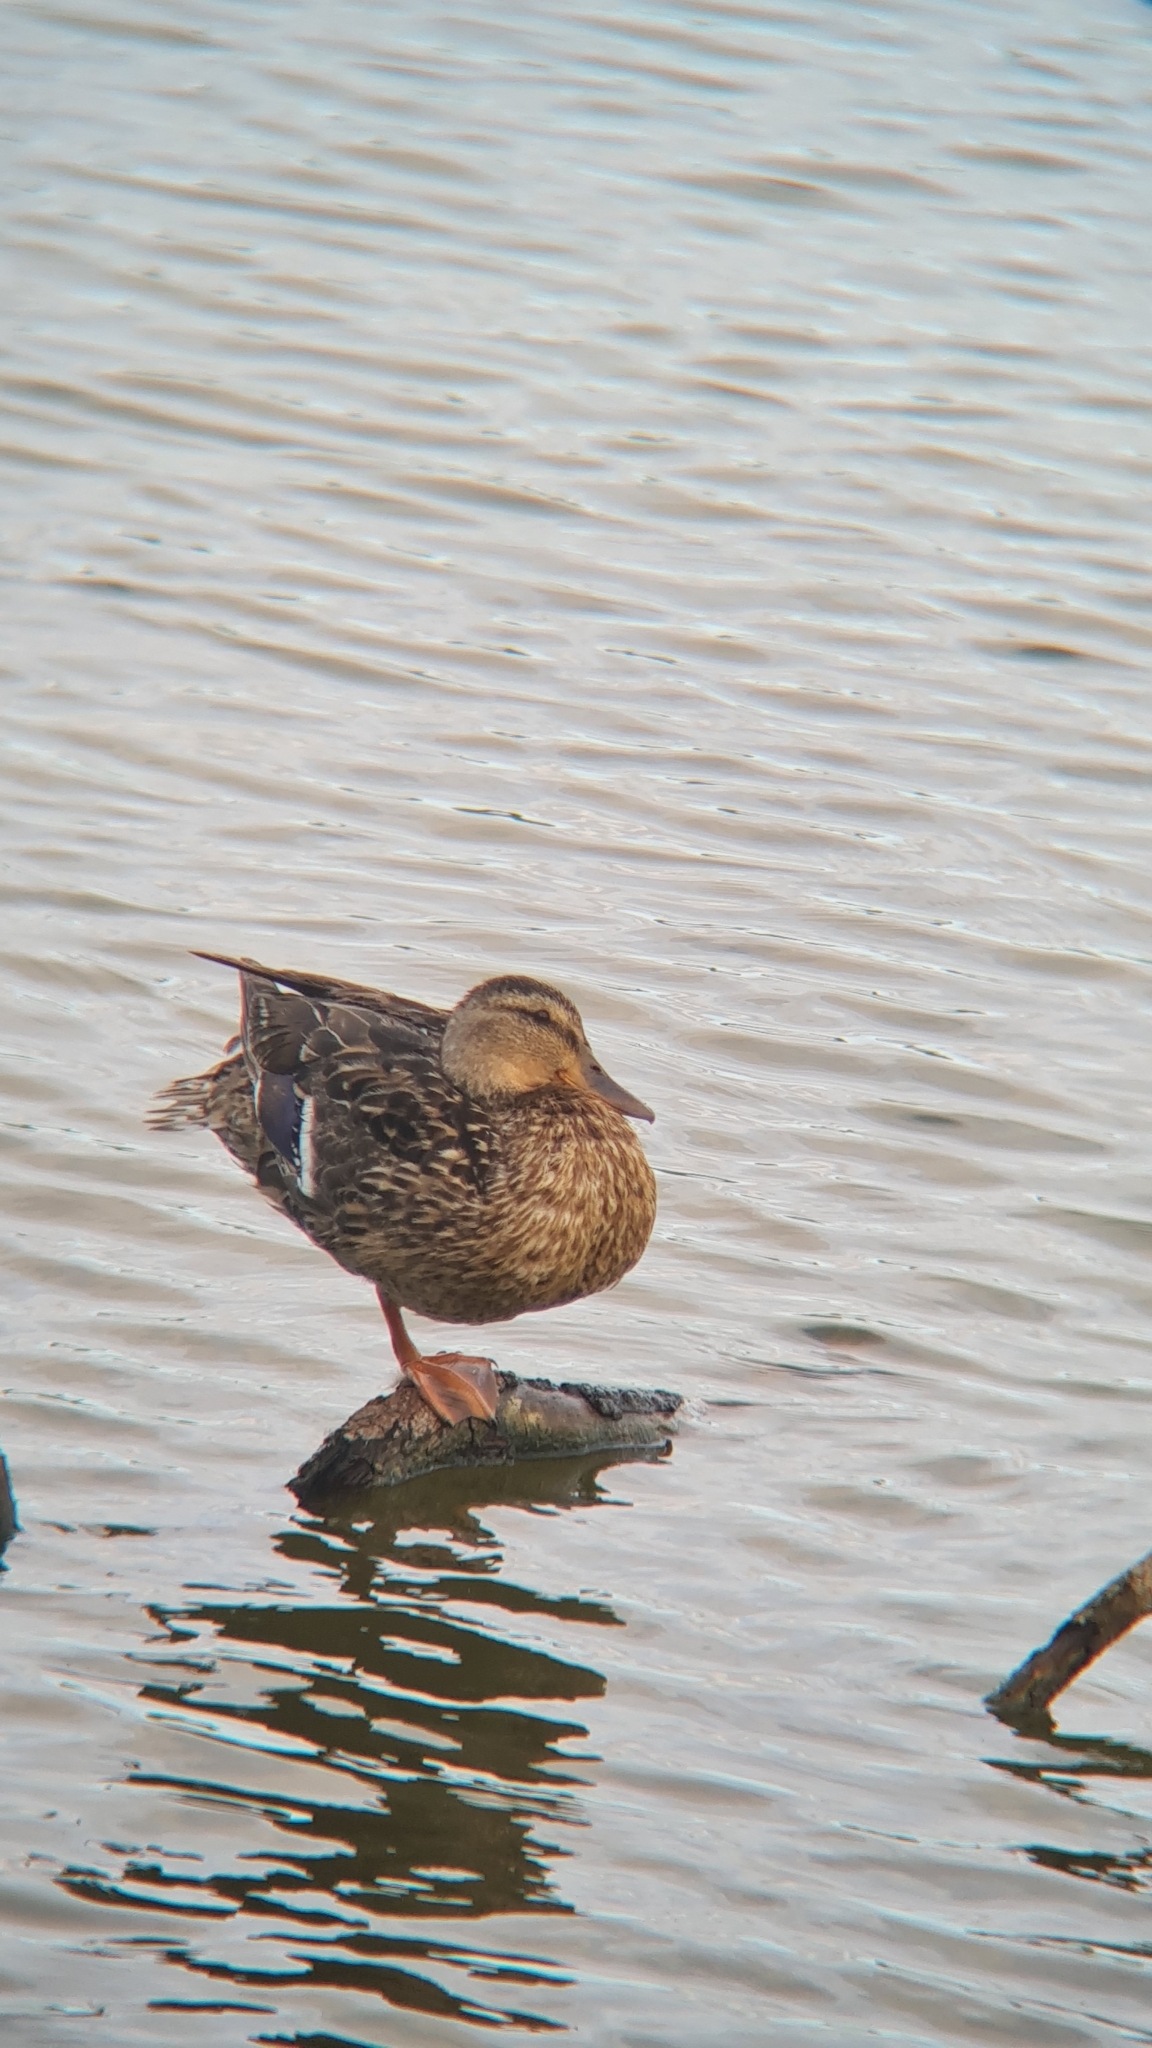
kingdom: Animalia
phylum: Chordata
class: Aves
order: Anseriformes
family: Anatidae
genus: Anas
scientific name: Anas platyrhynchos
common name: Mallard
